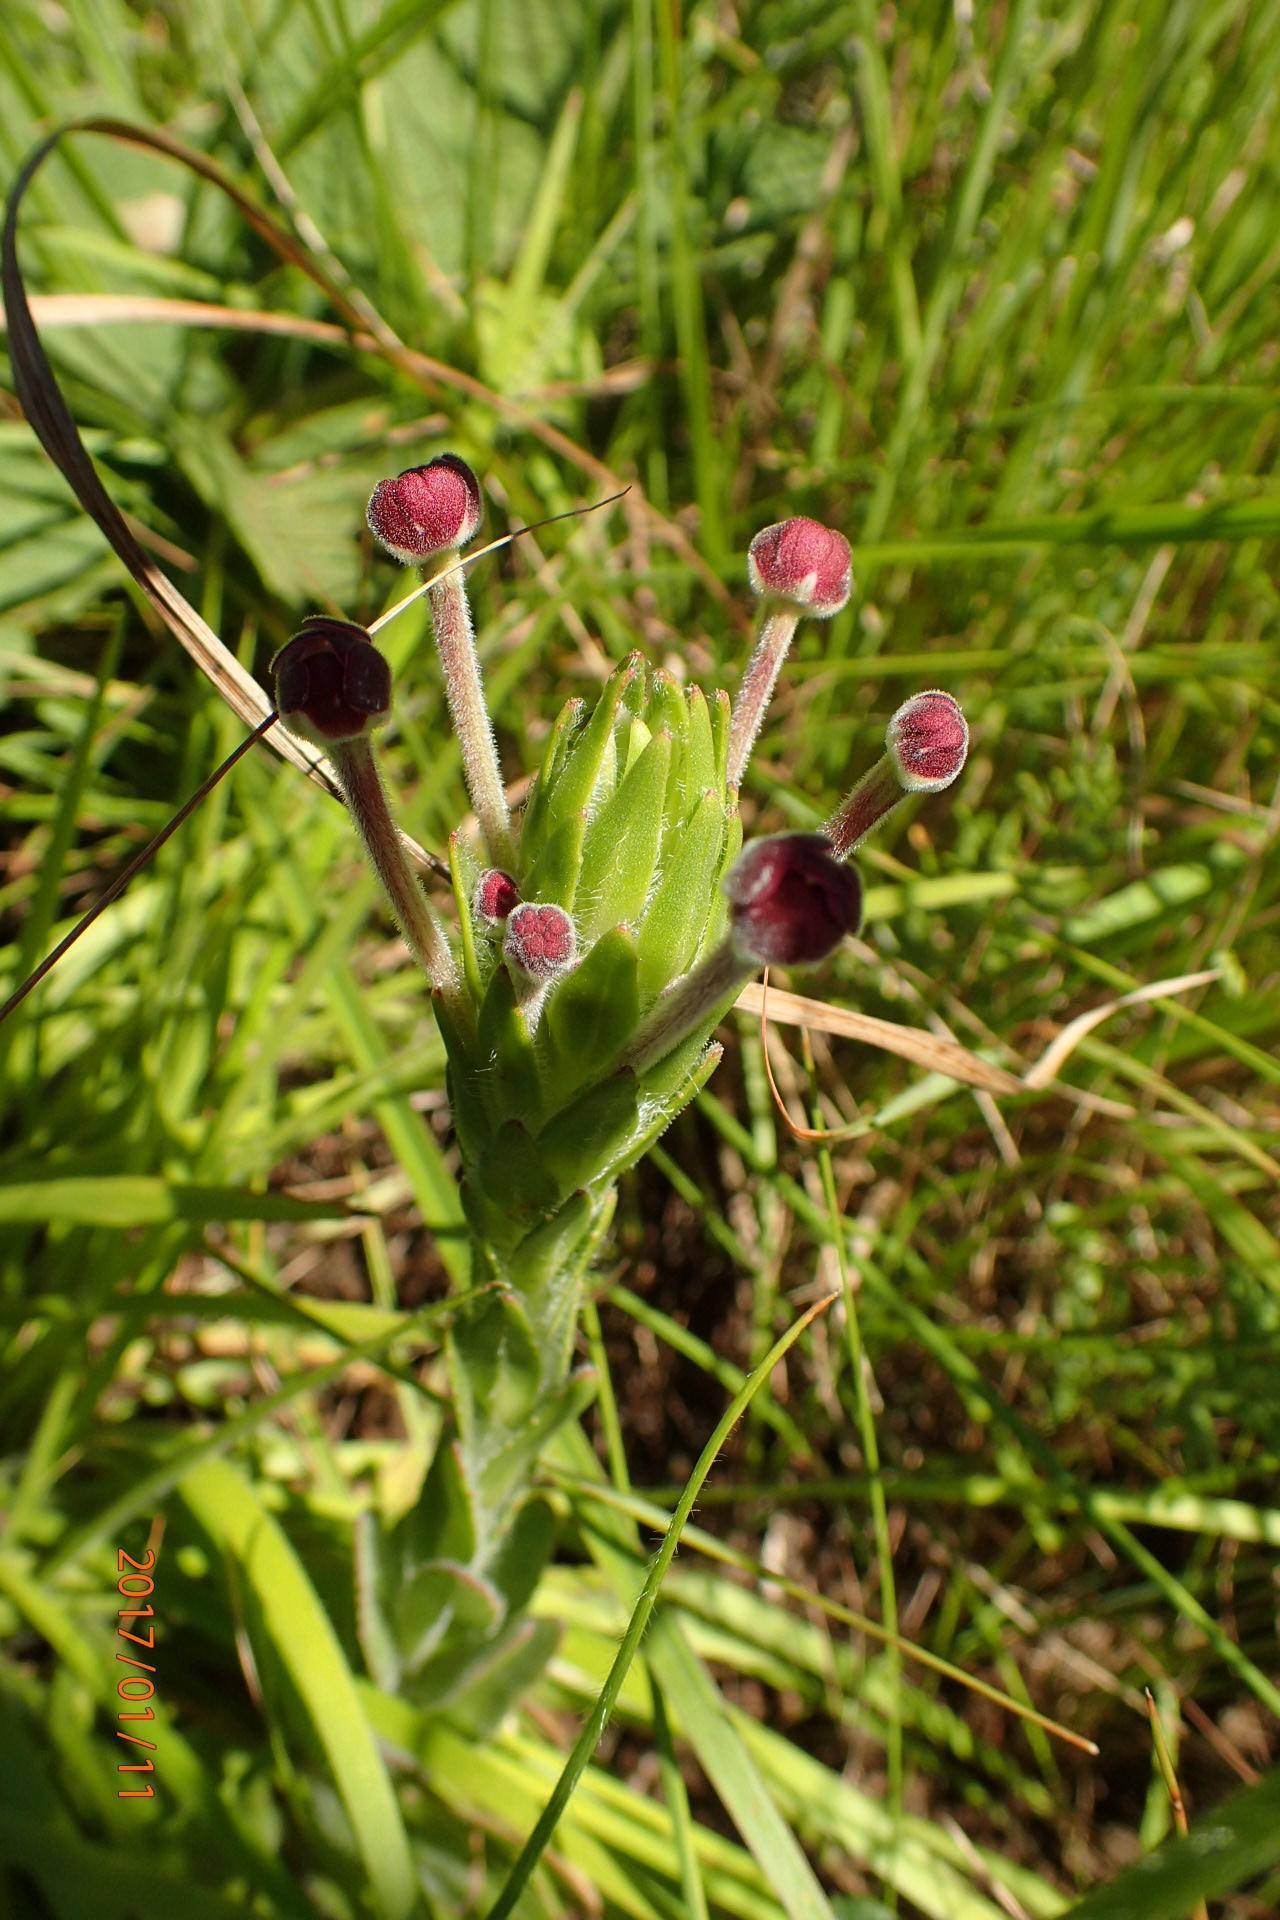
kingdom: Plantae
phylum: Tracheophyta
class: Magnoliopsida
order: Lamiales
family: Scrophulariaceae
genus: Zaluzianskya
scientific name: Zaluzianskya natalensis
